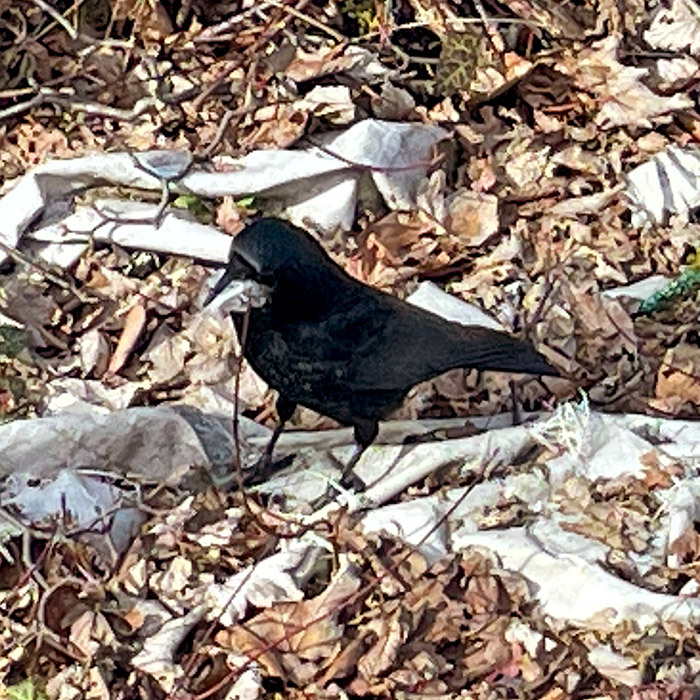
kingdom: Animalia
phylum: Chordata
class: Aves
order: Passeriformes
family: Corvidae
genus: Corvus
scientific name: Corvus corone
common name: Carrion crow
